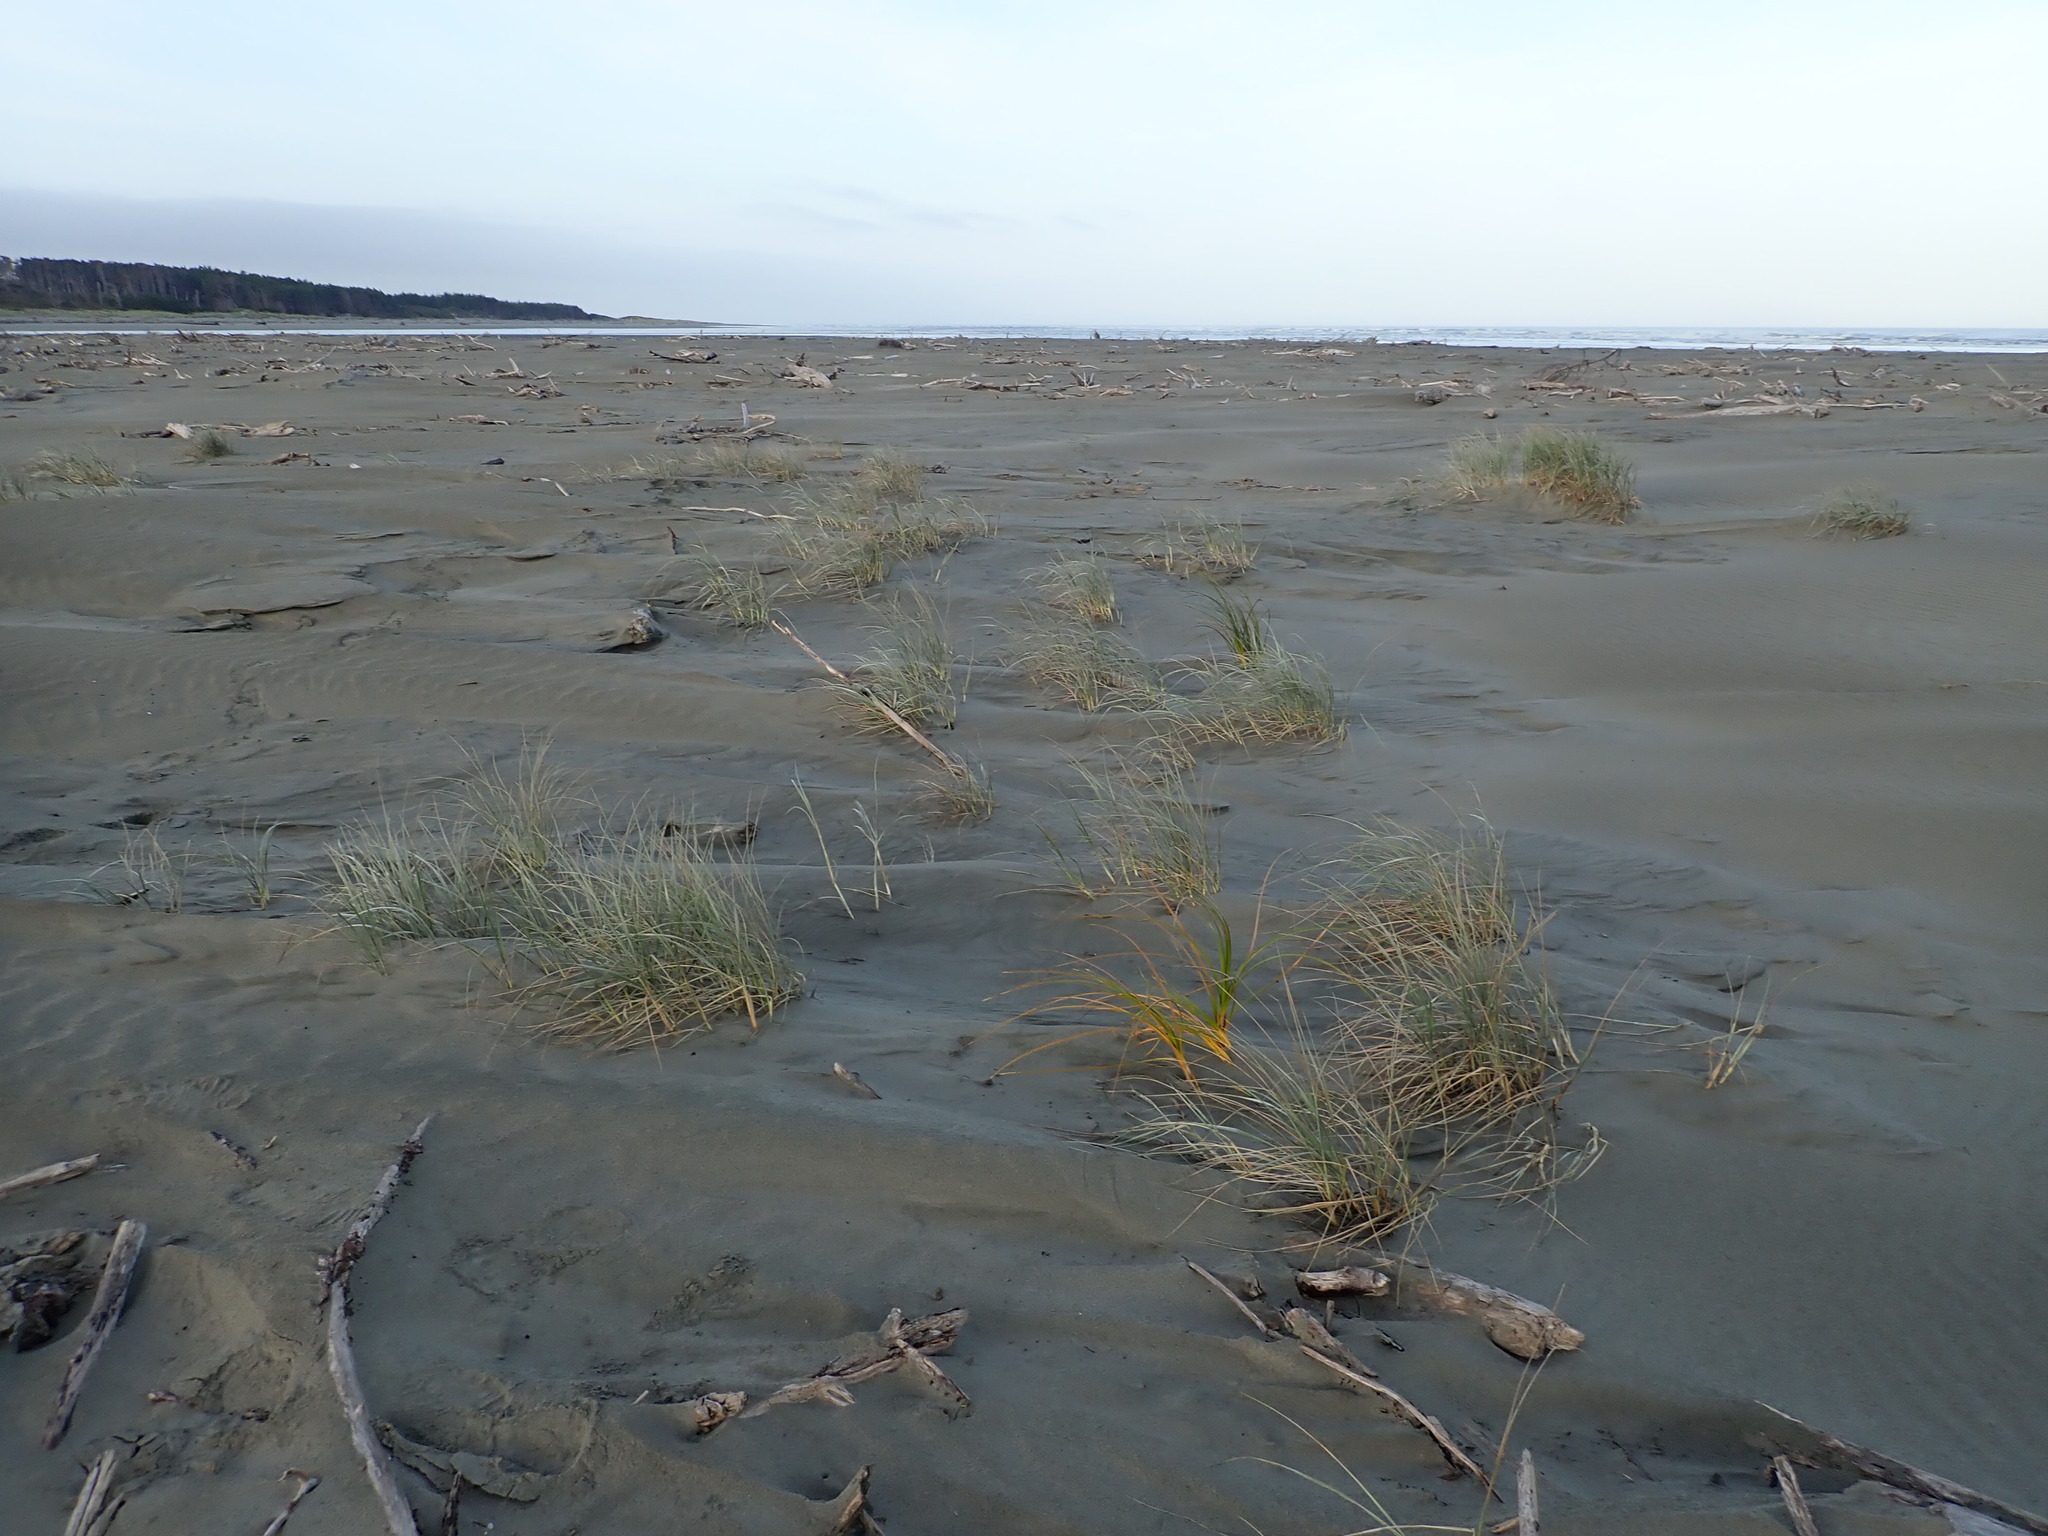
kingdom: Plantae
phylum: Tracheophyta
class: Liliopsida
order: Poales
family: Poaceae
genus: Spinifex
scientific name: Spinifex sericeus
